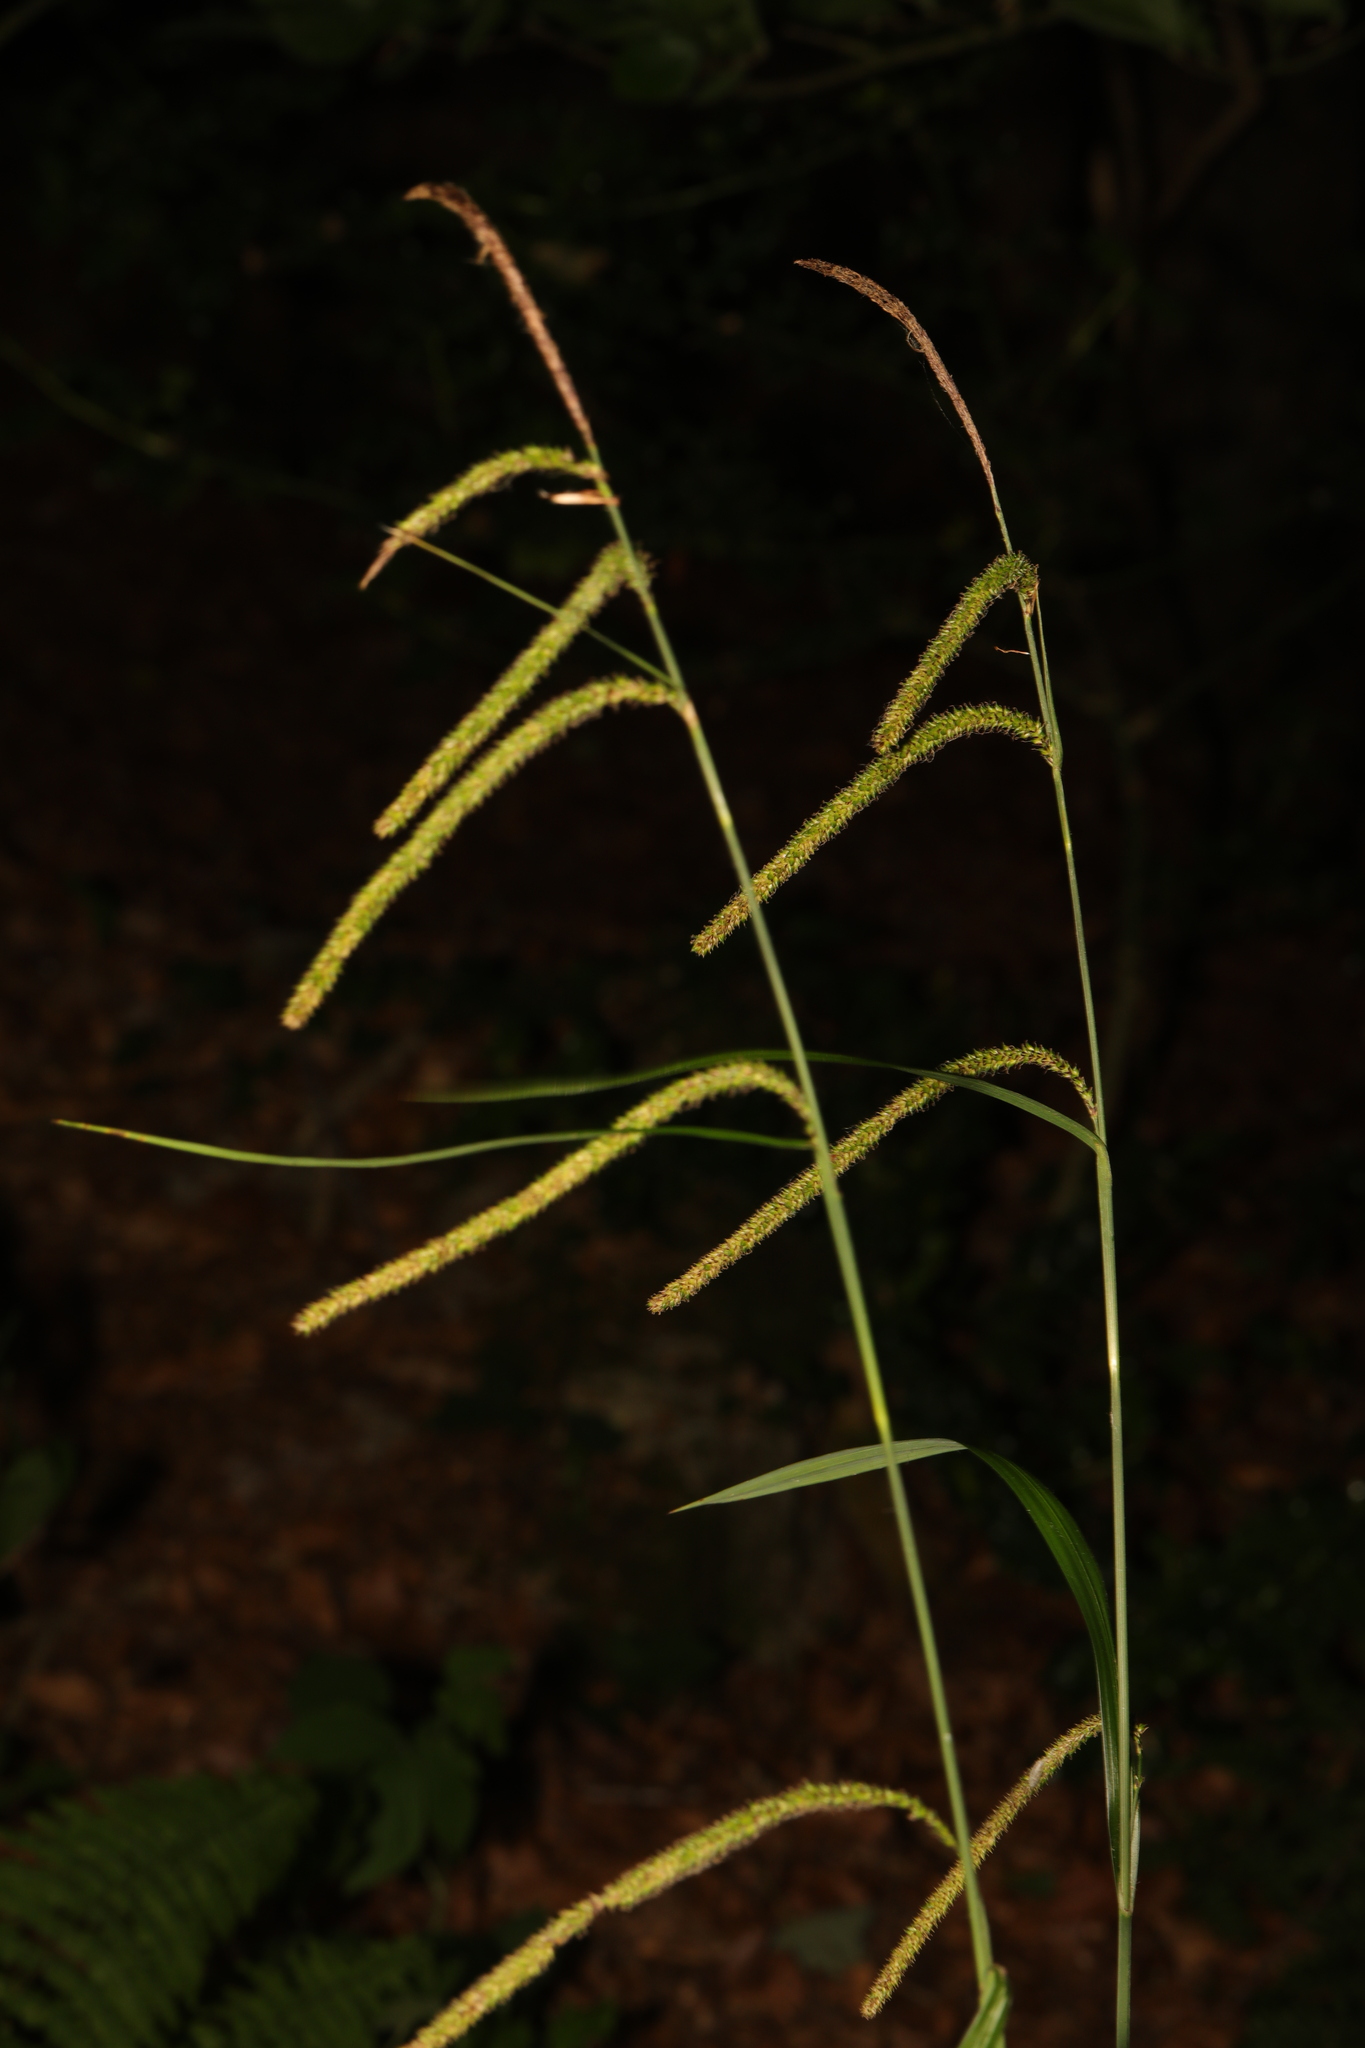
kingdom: Plantae
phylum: Tracheophyta
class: Liliopsida
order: Poales
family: Cyperaceae
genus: Carex
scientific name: Carex pendula
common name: Pendulous sedge
